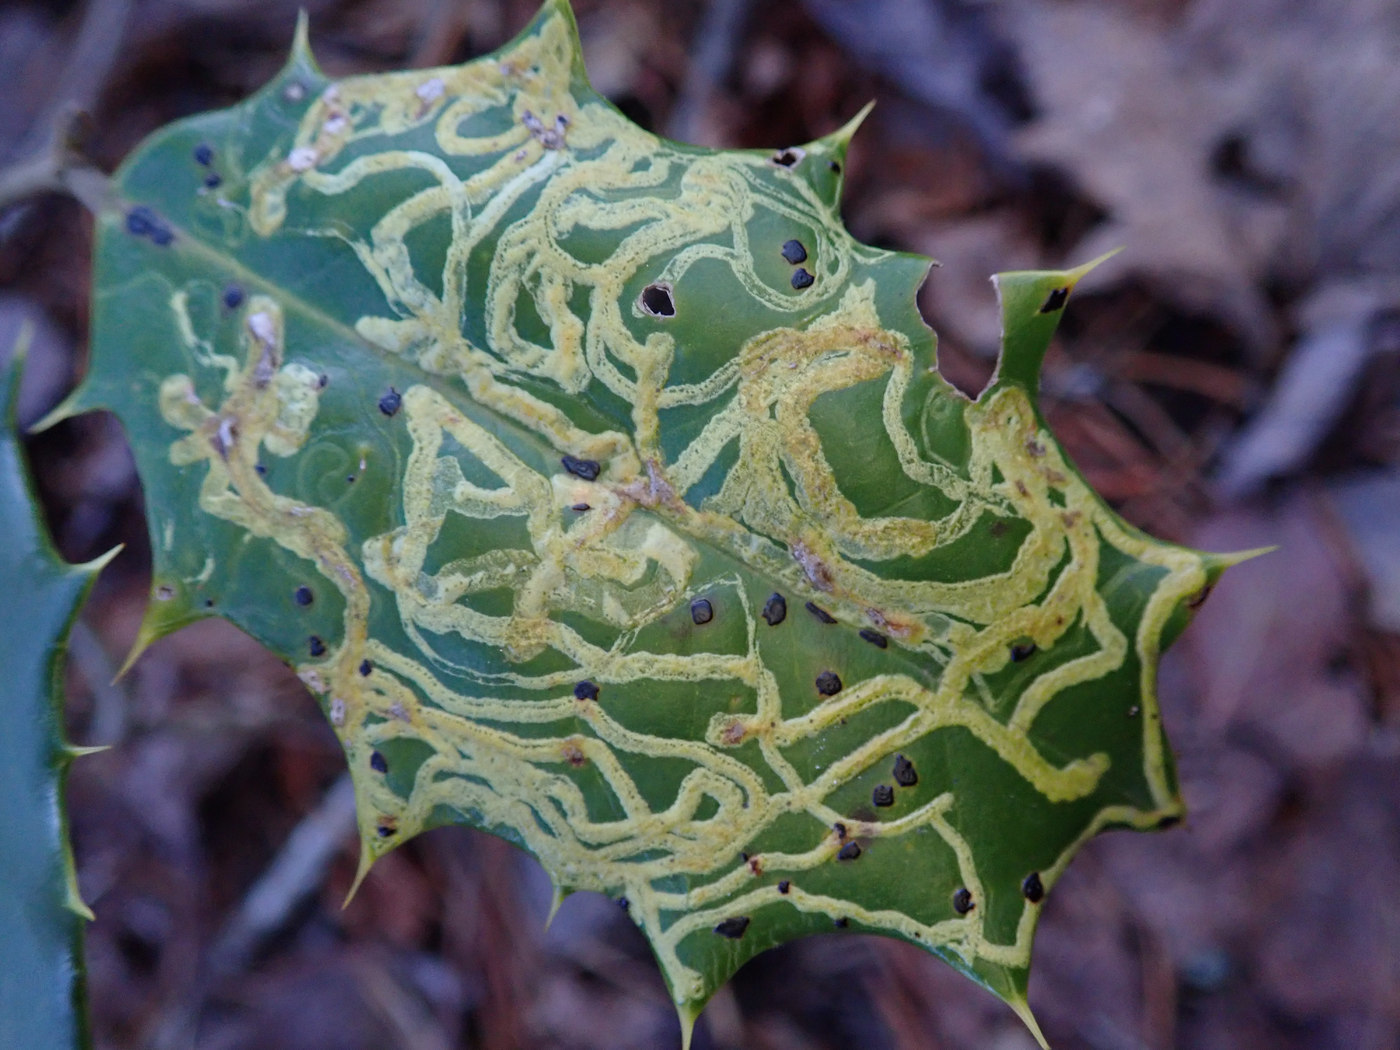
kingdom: Animalia
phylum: Arthropoda
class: Insecta
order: Diptera
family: Agromyzidae
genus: Phytomyza
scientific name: Phytomyza opacae
